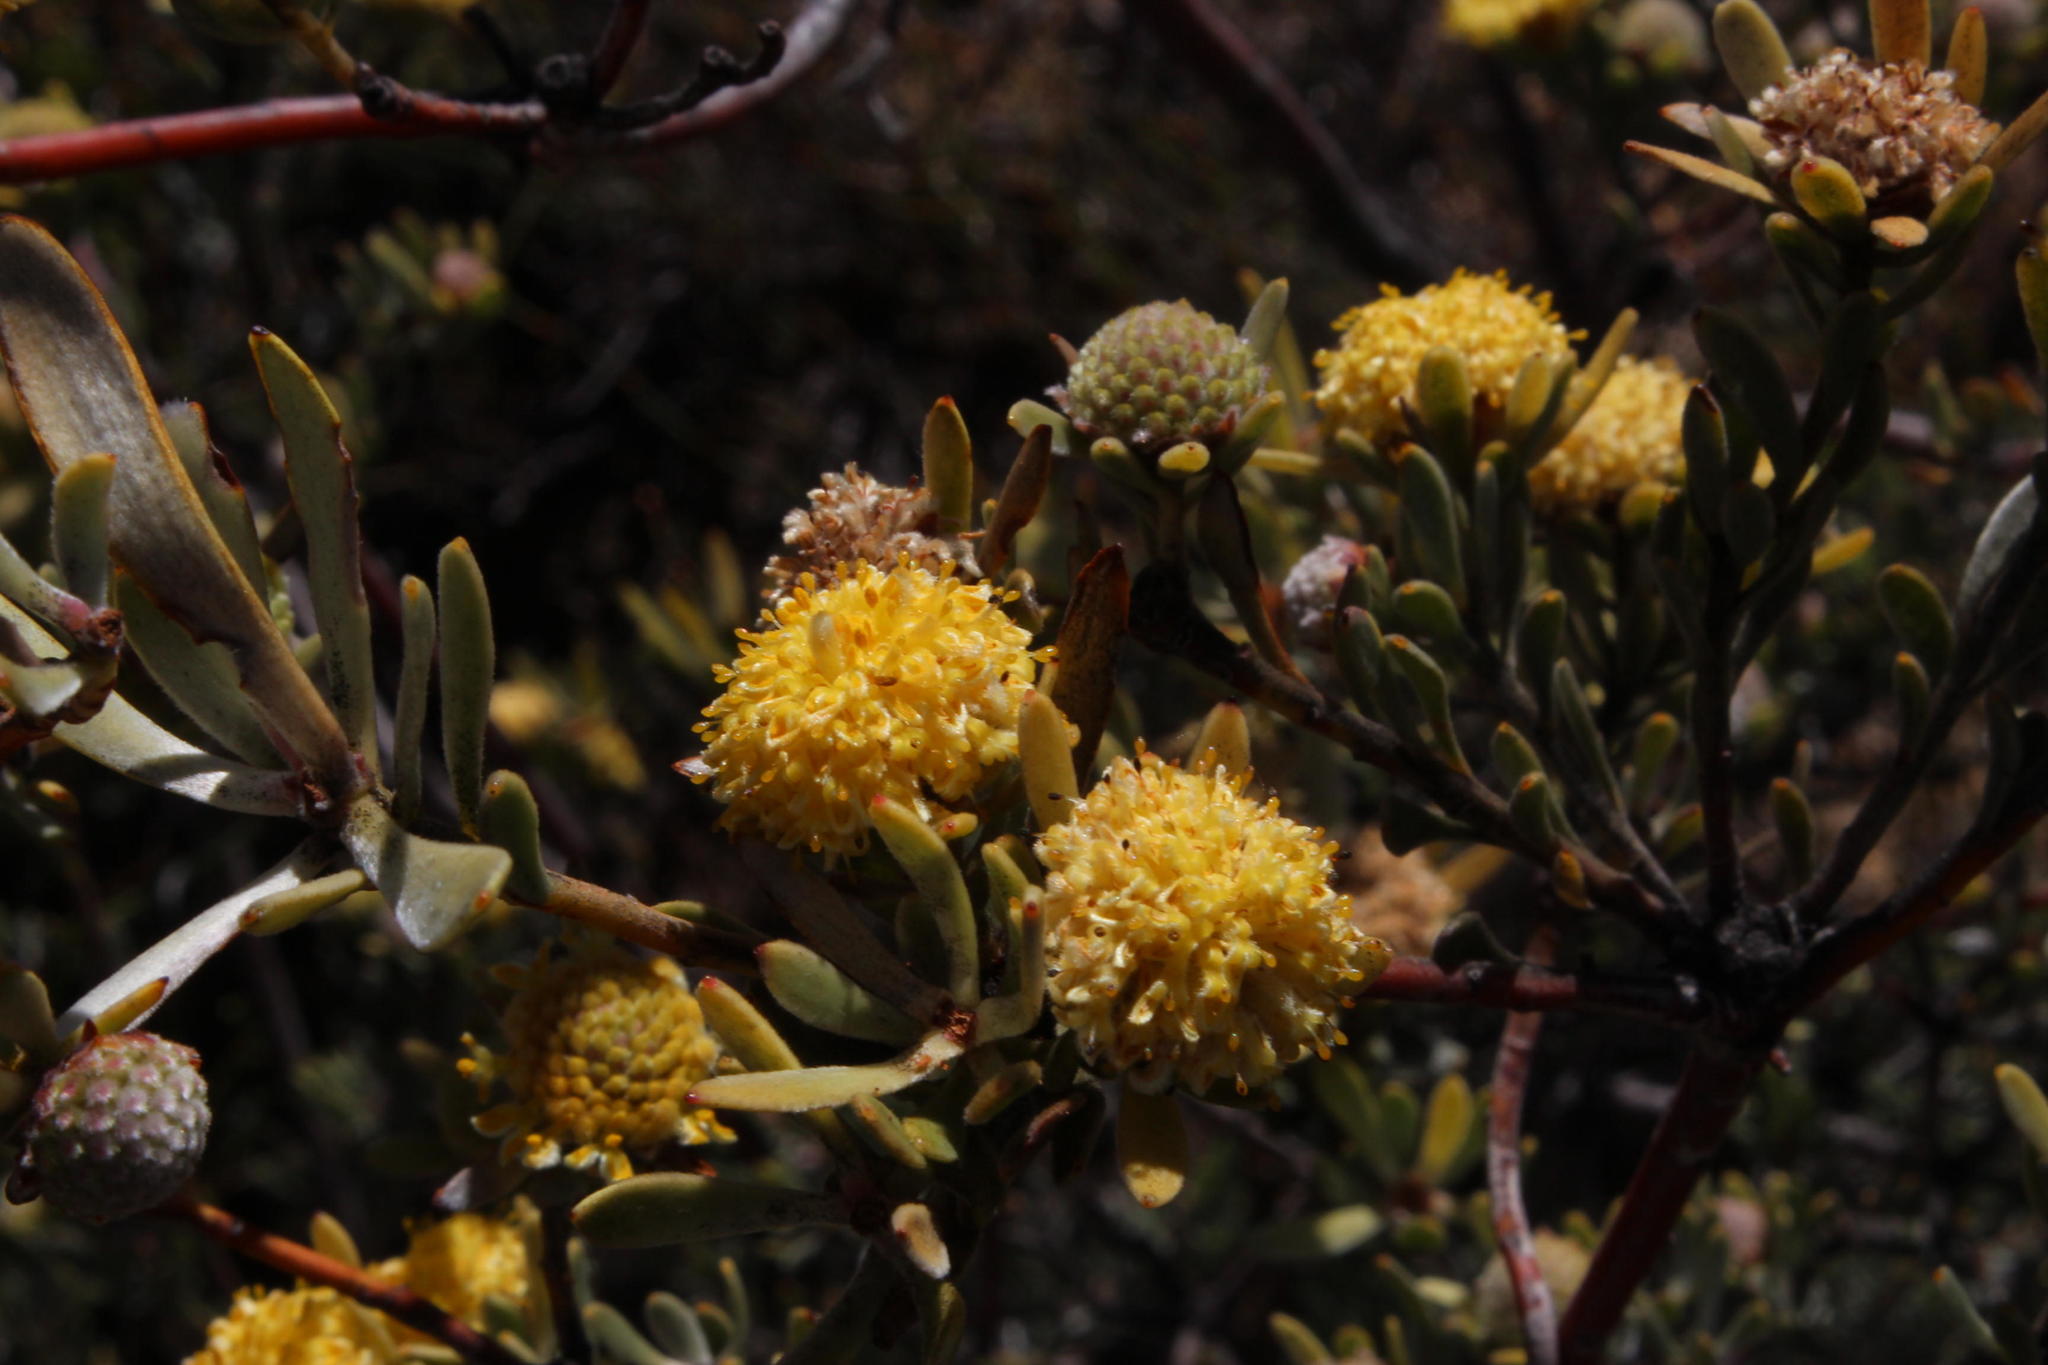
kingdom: Plantae
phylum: Tracheophyta
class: Magnoliopsida
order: Proteales
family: Proteaceae
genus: Leucadendron
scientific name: Leucadendron nitidum
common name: Bokkeveld conebush
